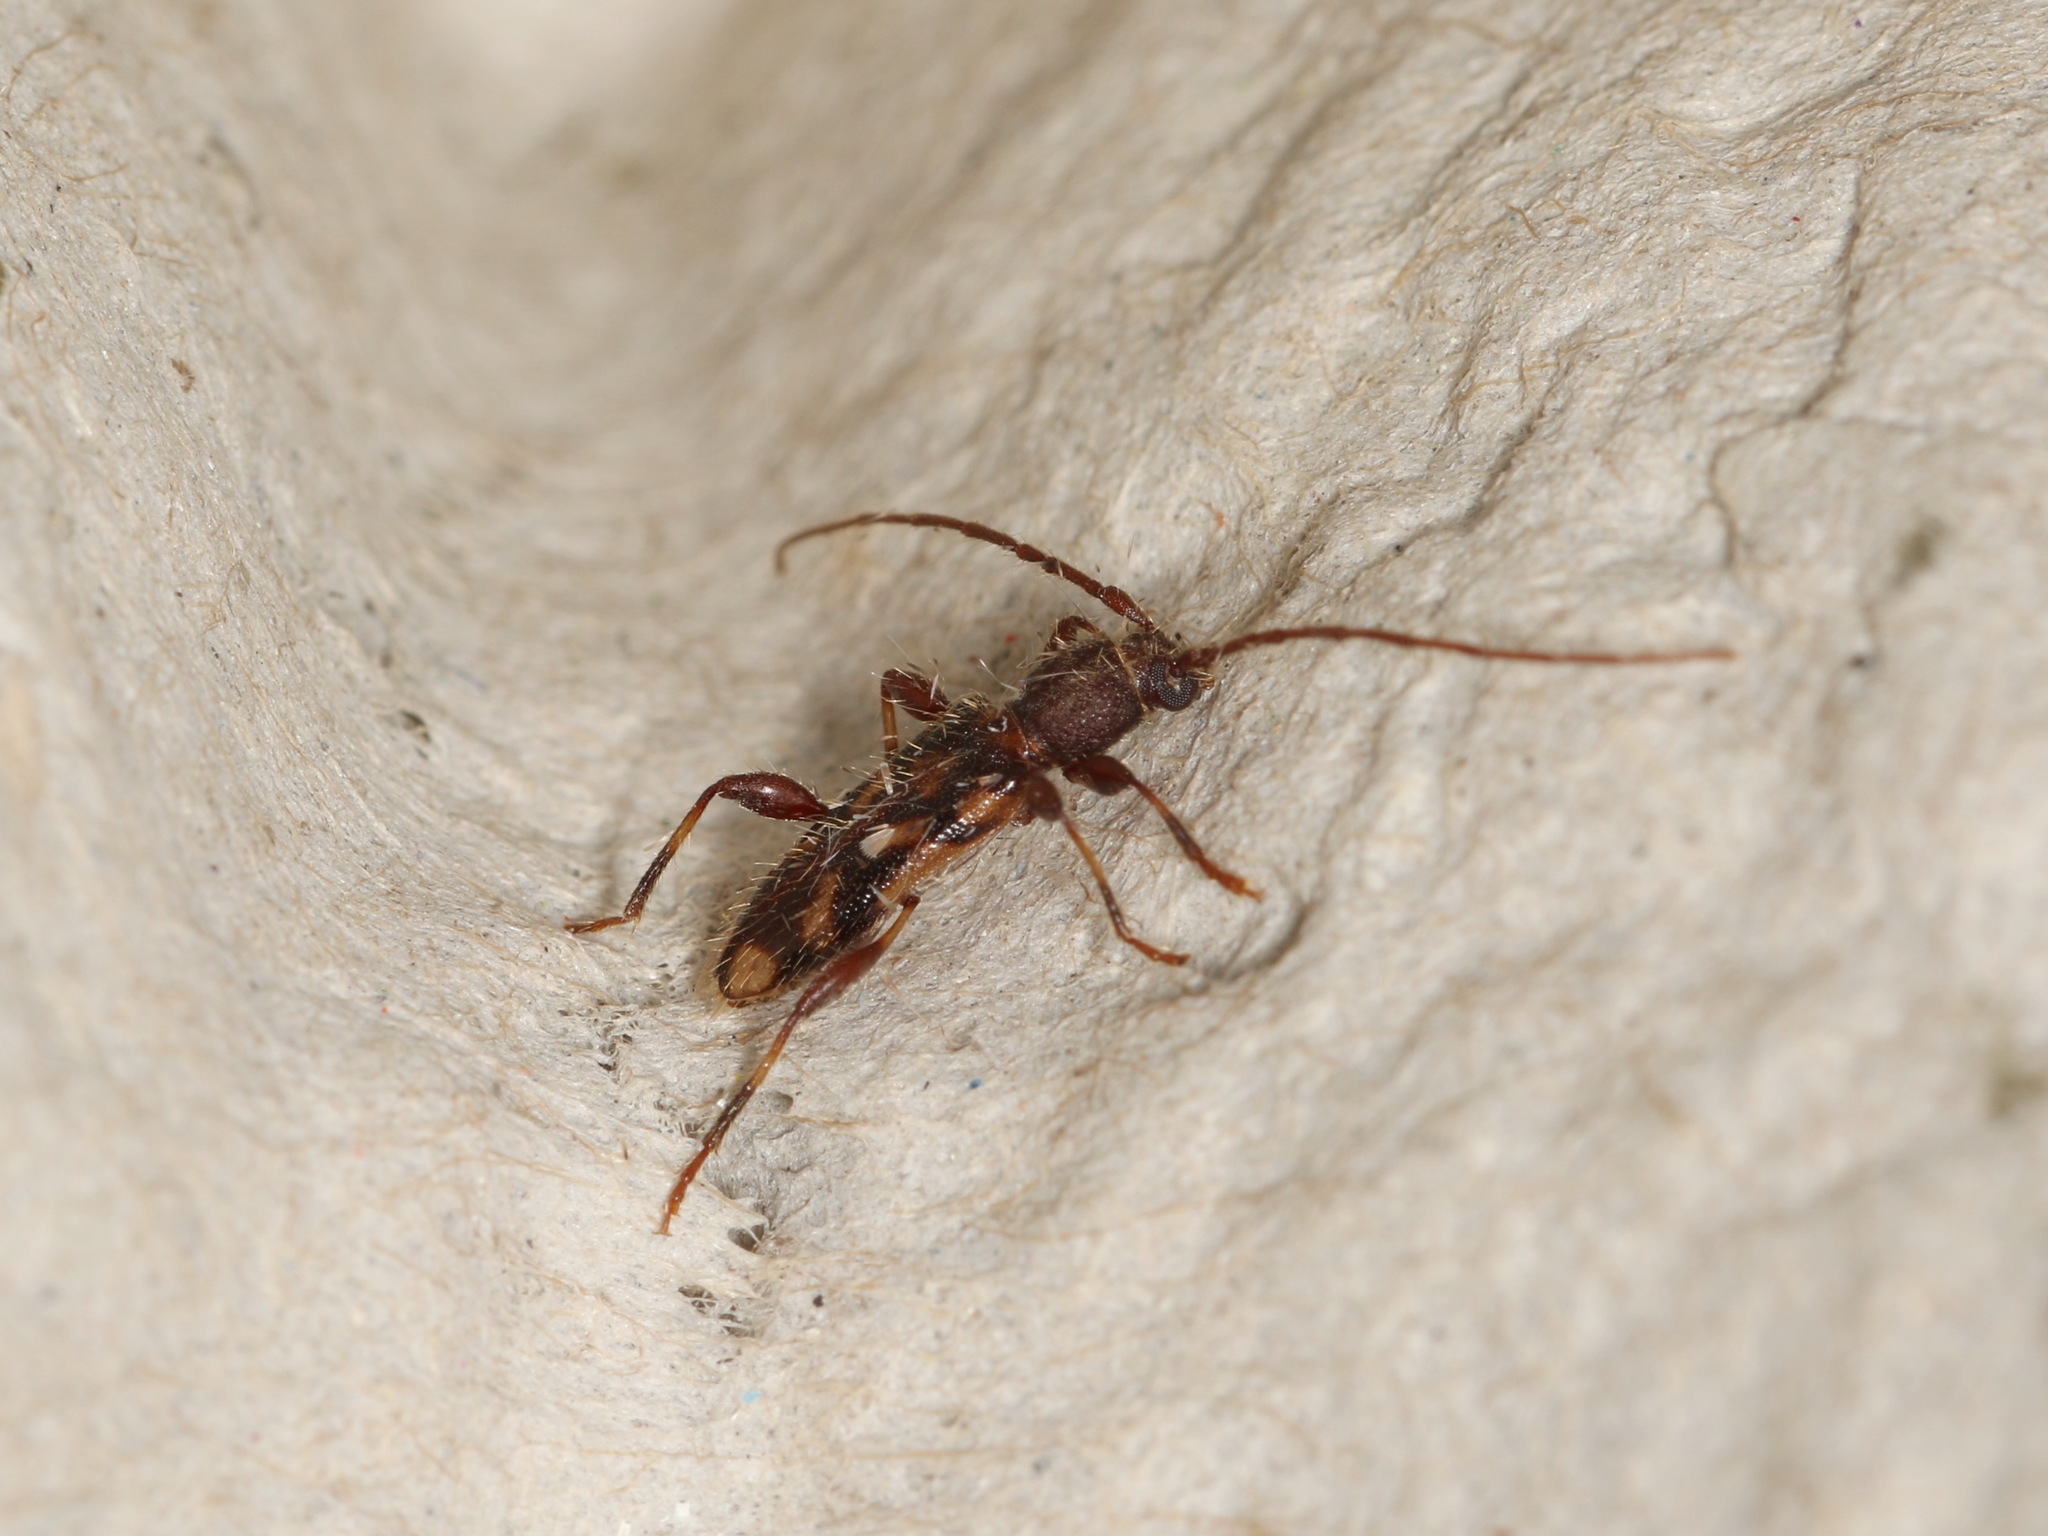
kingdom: Animalia
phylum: Arthropoda
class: Insecta
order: Coleoptera
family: Cerambycidae
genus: Bethelium
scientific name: Bethelium signiferum
